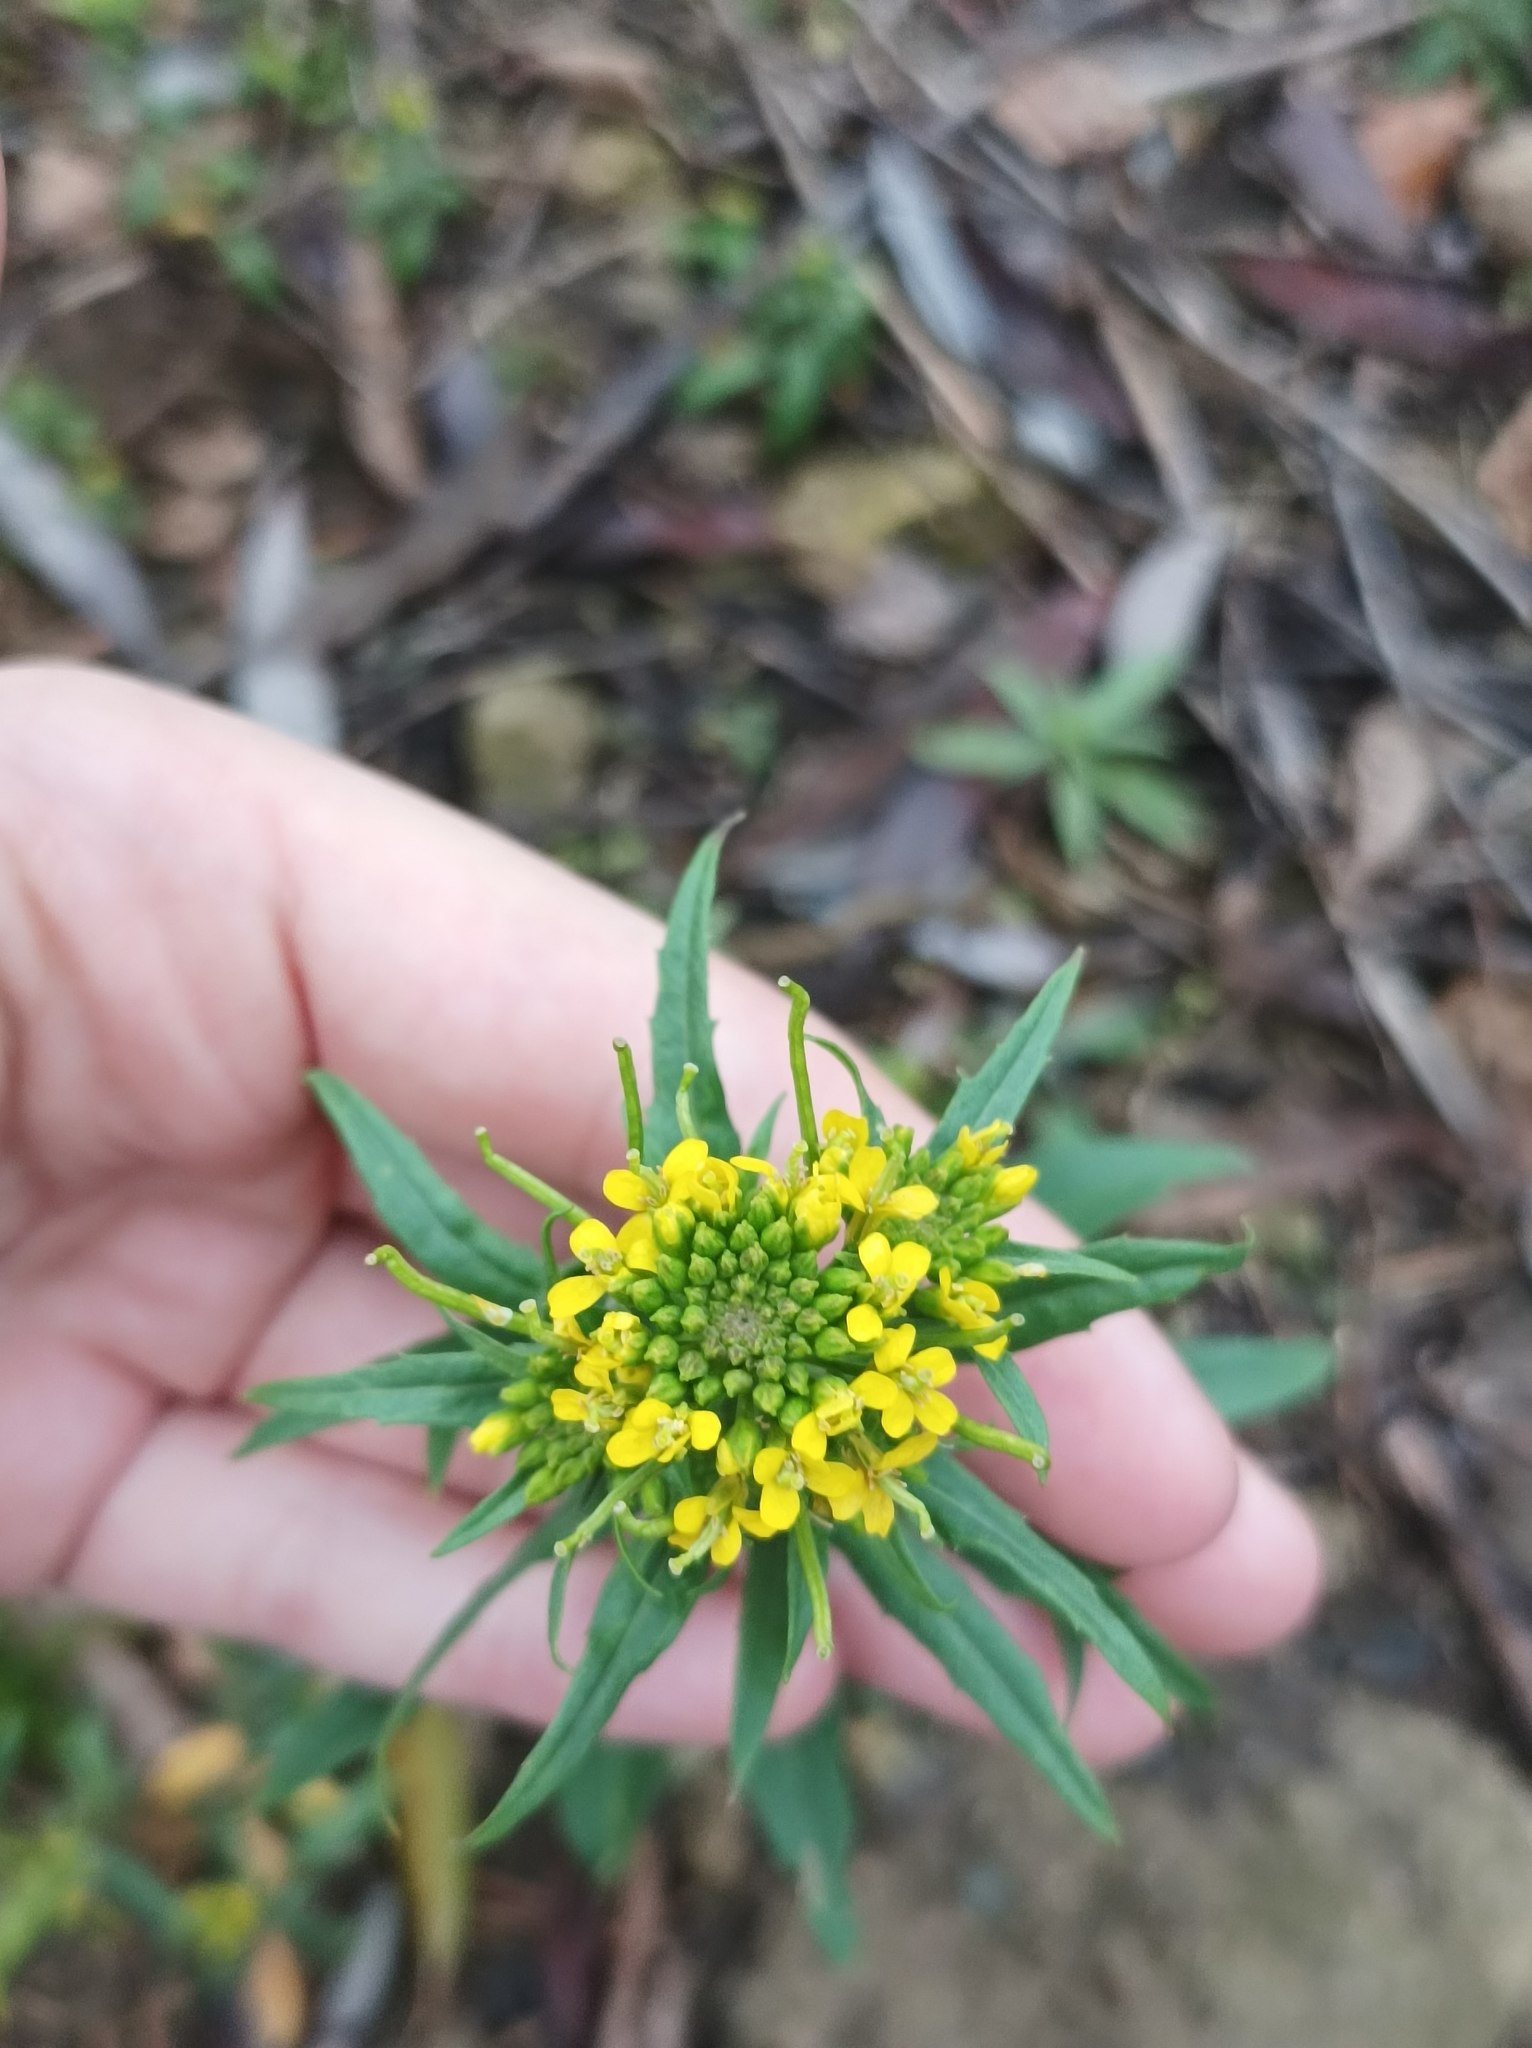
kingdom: Plantae
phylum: Tracheophyta
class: Magnoliopsida
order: Brassicales
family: Brassicaceae
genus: Erysimum
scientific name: Erysimum cheiranthoides
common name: Treacle mustard
